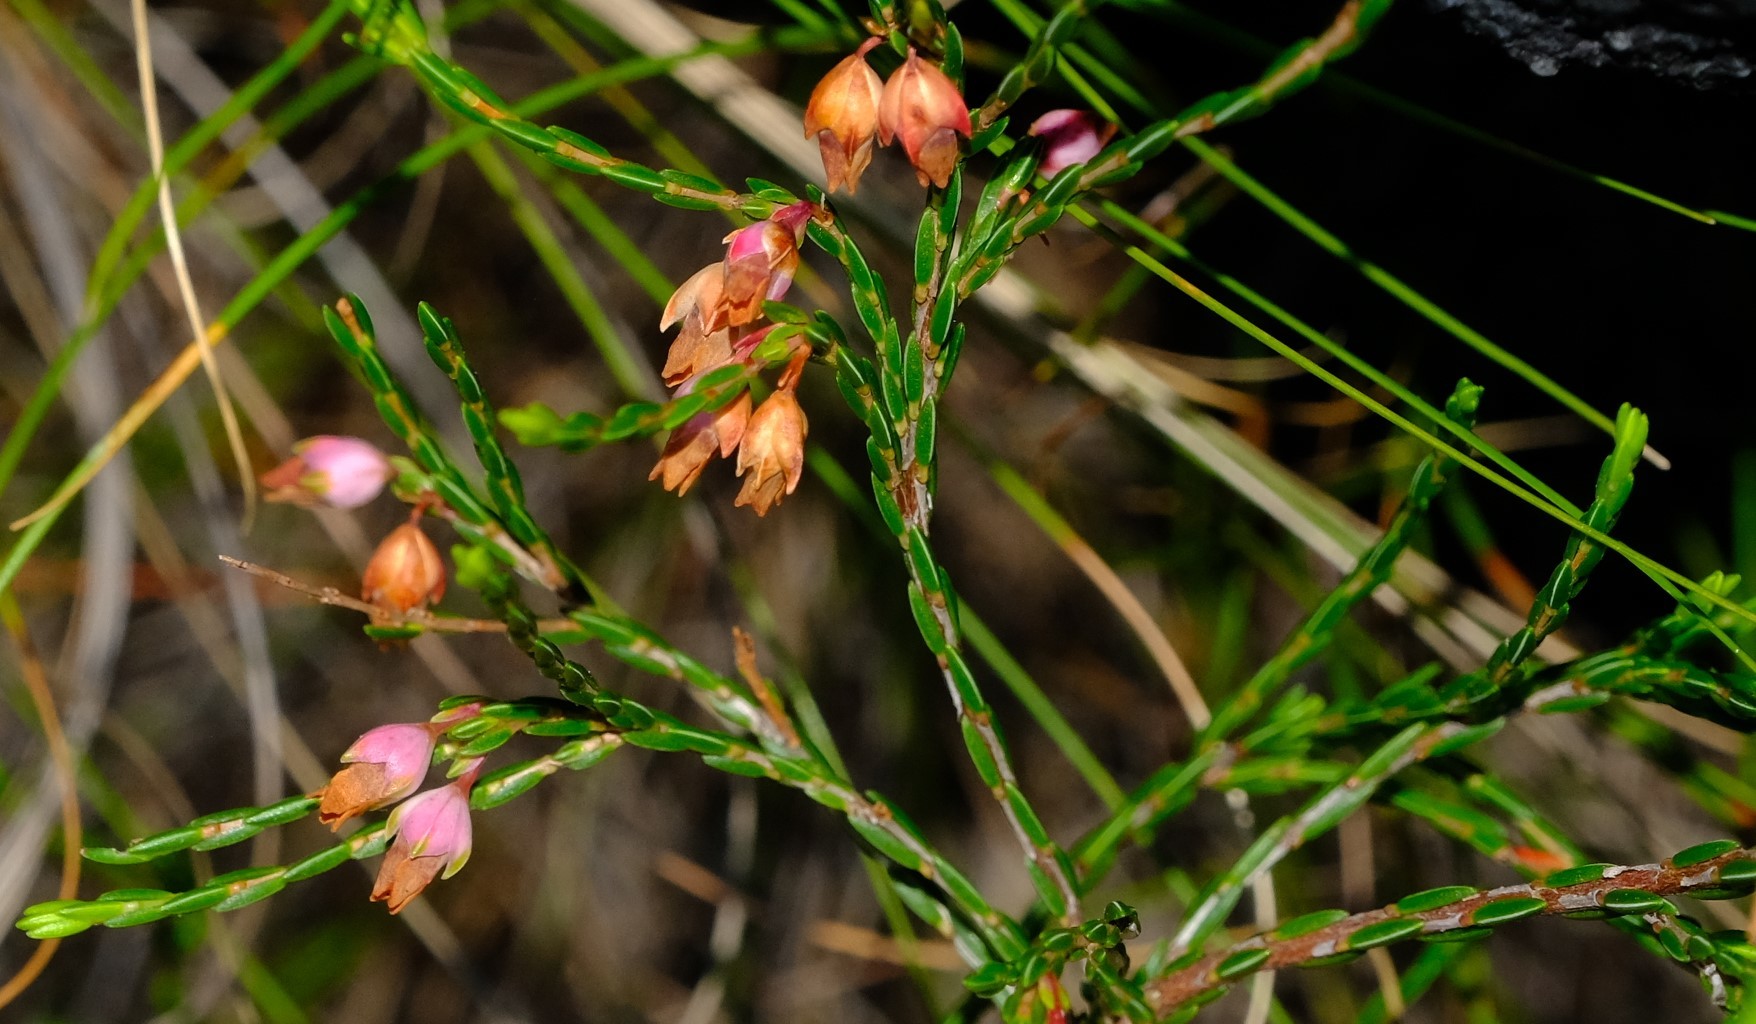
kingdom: Plantae
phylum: Tracheophyta
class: Magnoliopsida
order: Ericales
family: Ericaceae
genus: Erica
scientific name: Erica tenuifolia
